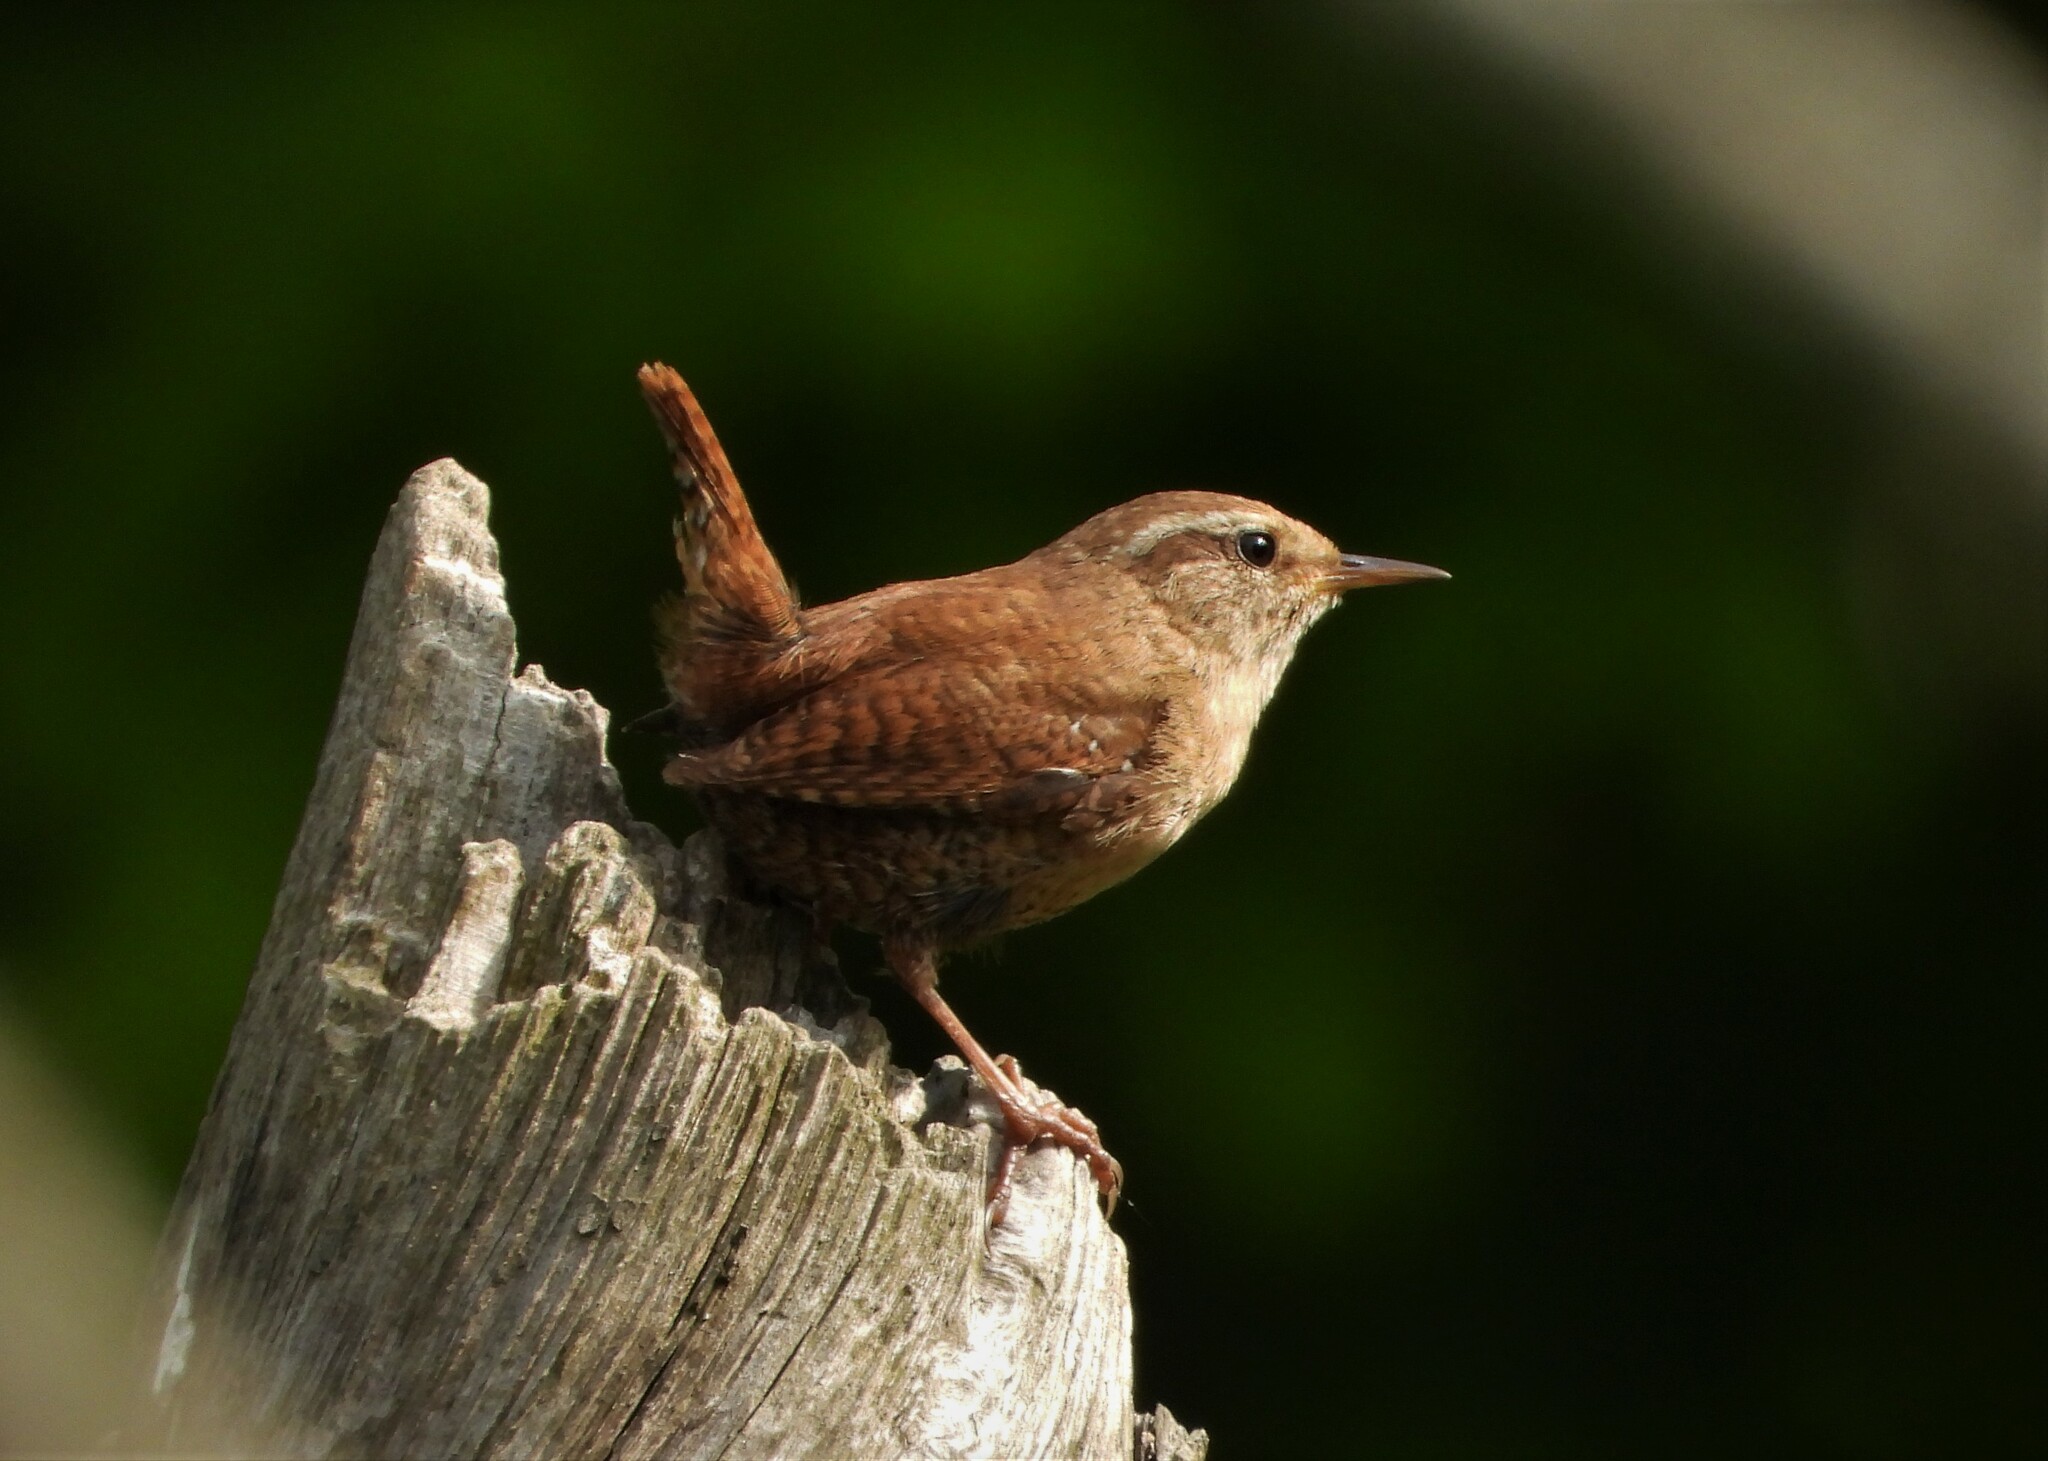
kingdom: Animalia
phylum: Chordata
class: Aves
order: Passeriformes
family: Troglodytidae
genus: Troglodytes
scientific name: Troglodytes troglodytes
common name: Eurasian wren
